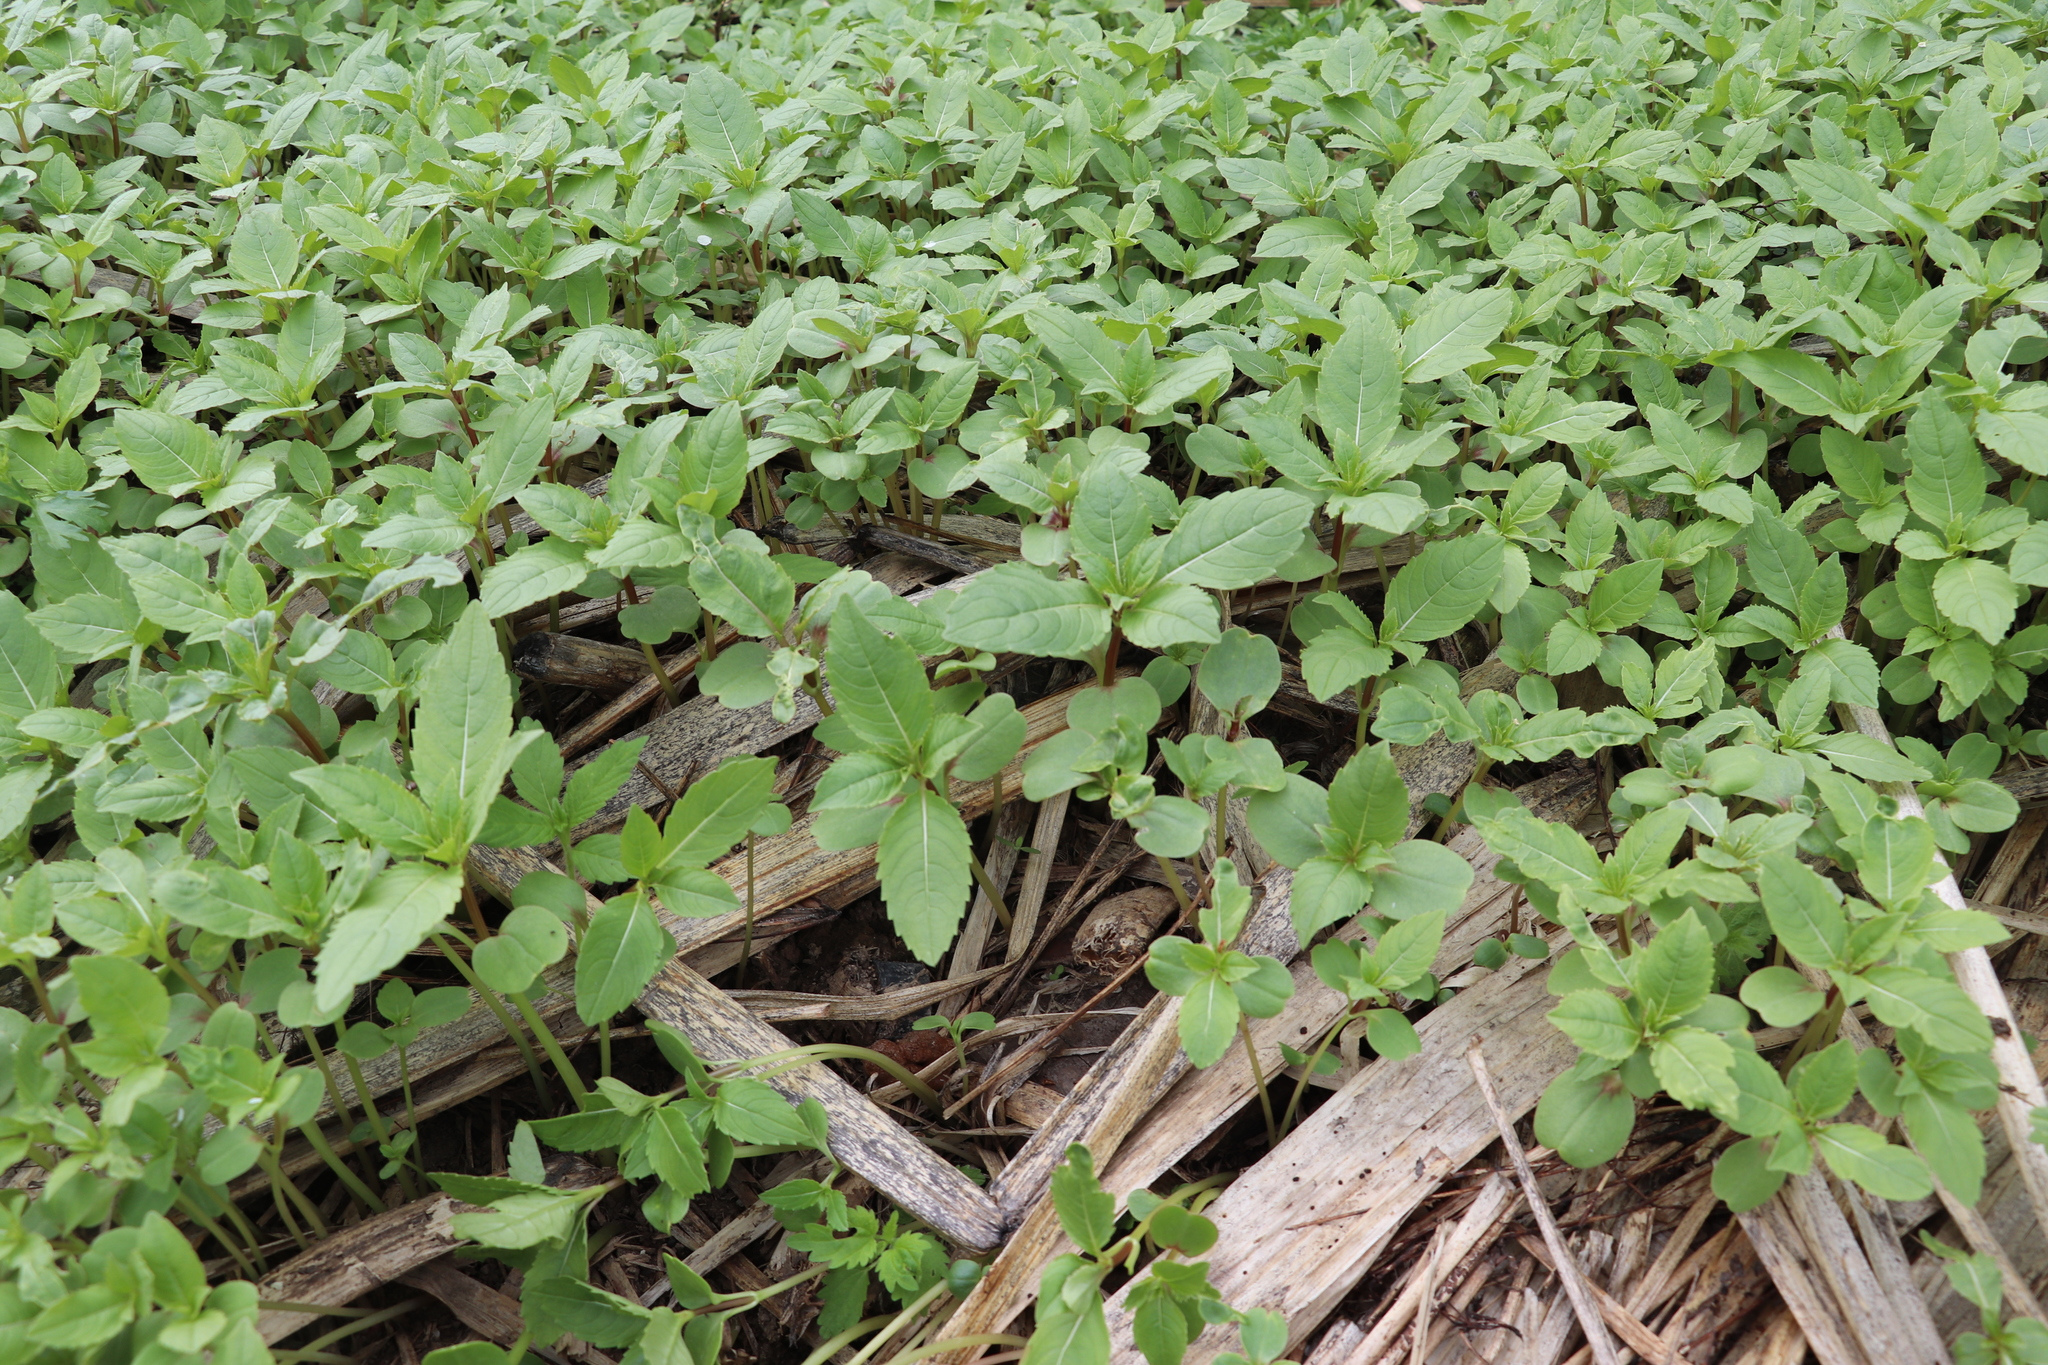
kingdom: Plantae
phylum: Tracheophyta
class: Magnoliopsida
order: Ericales
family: Balsaminaceae
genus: Impatiens
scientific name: Impatiens glandulifera
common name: Himalayan balsam
